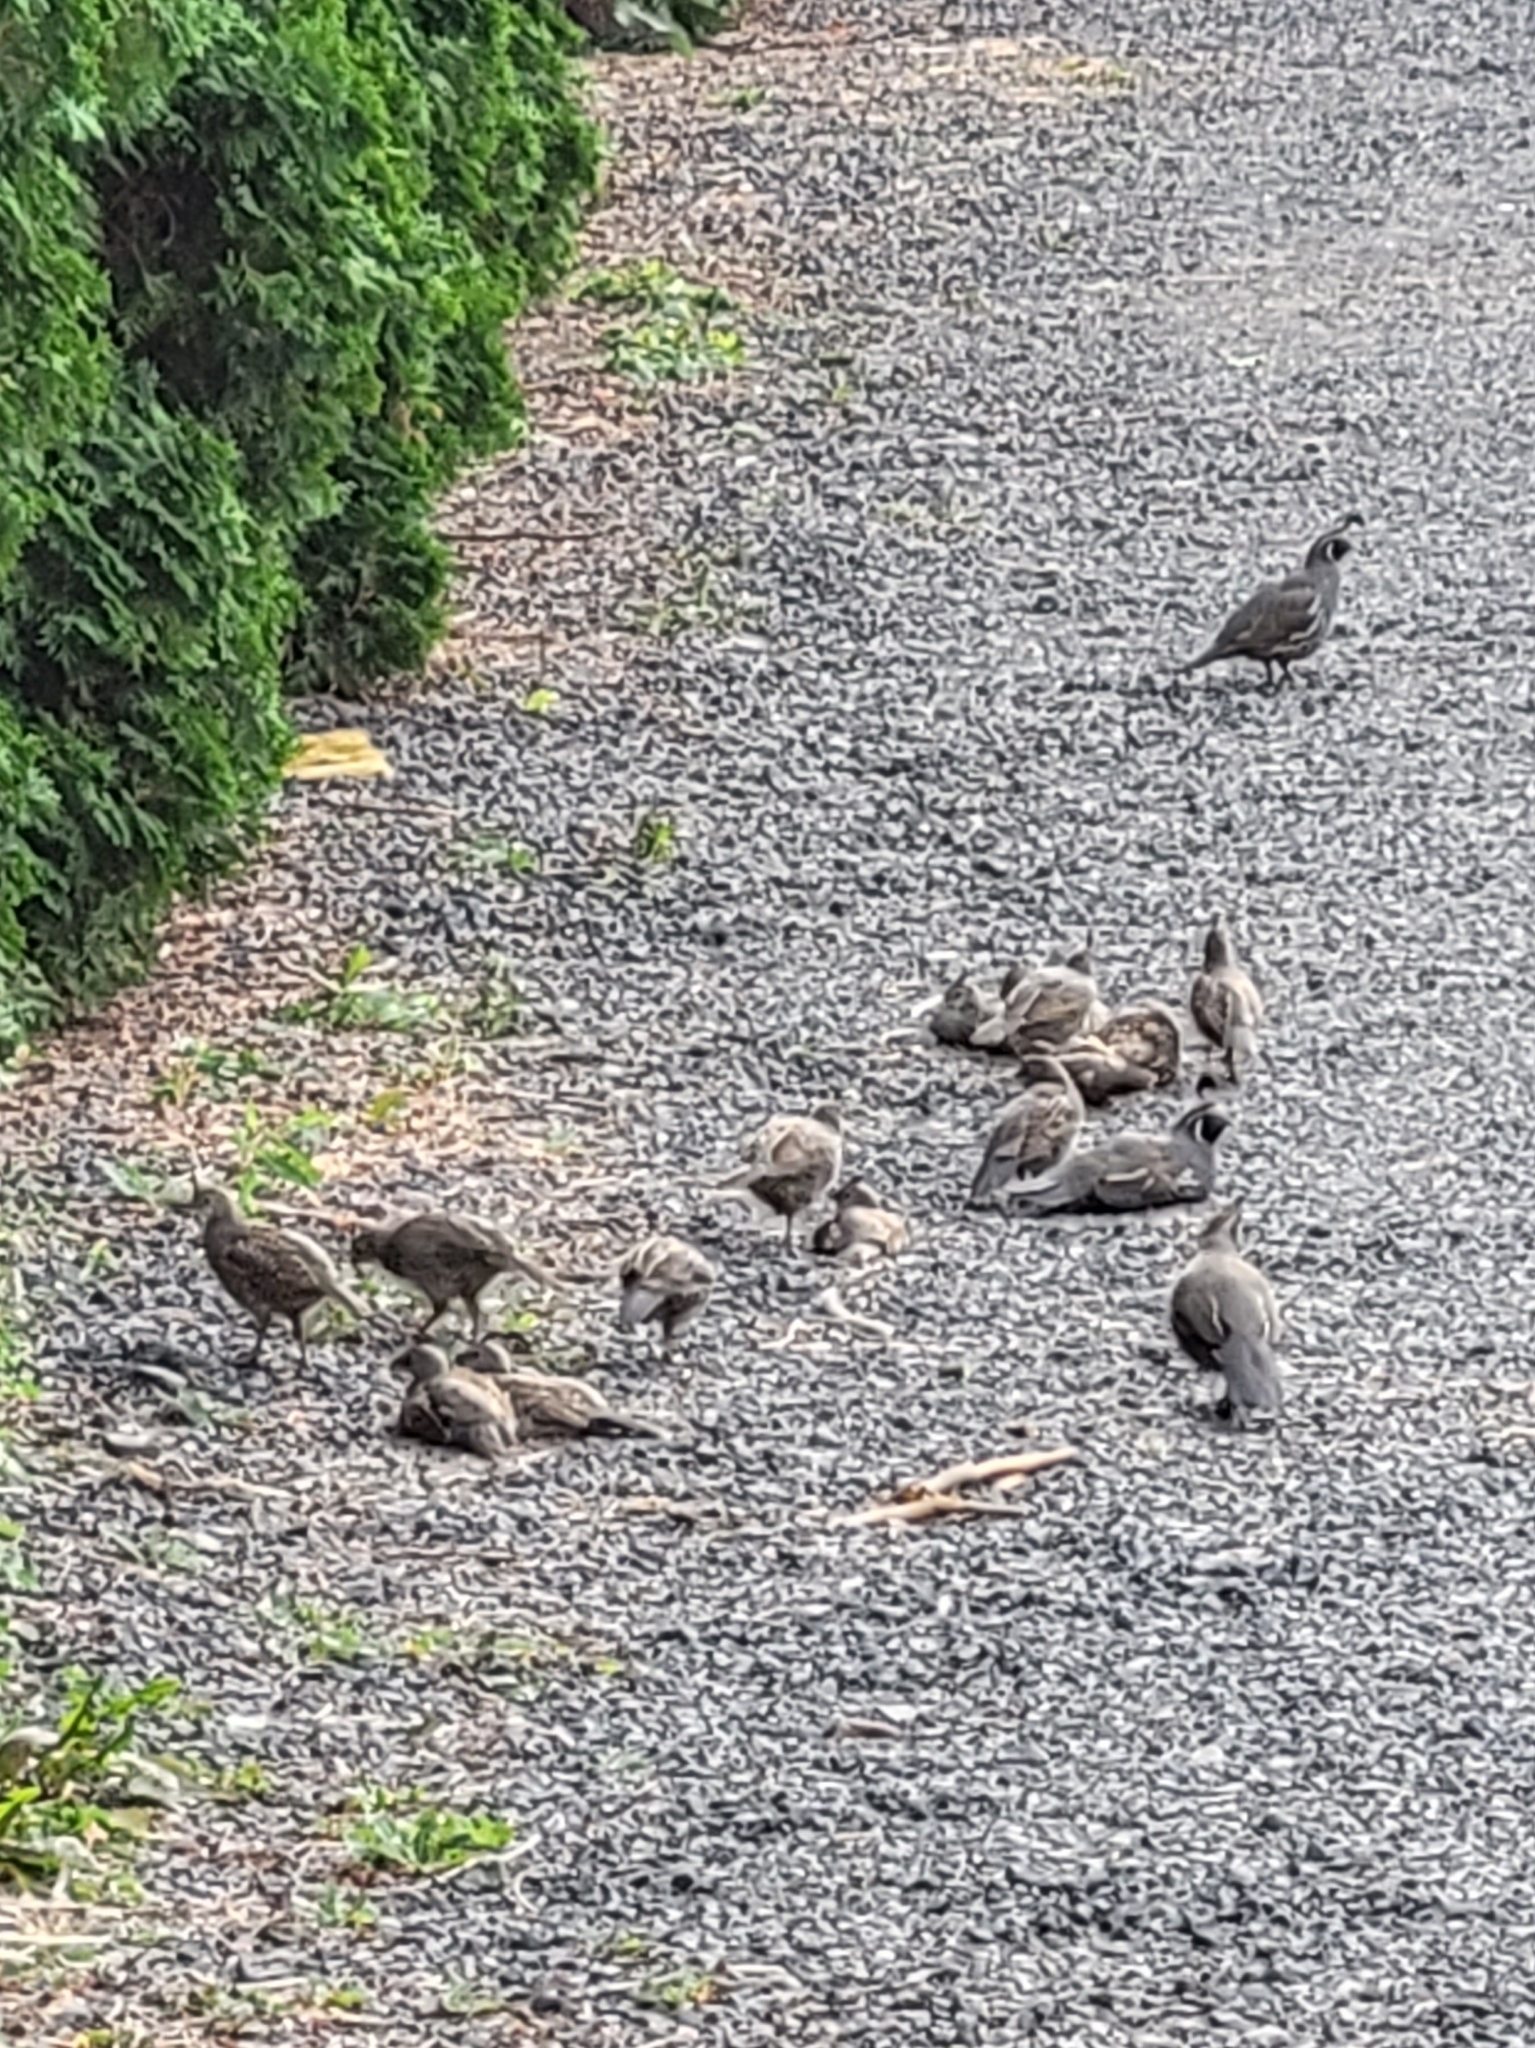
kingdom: Animalia
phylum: Chordata
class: Aves
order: Galliformes
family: Odontophoridae
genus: Callipepla
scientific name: Callipepla californica
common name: California quail
